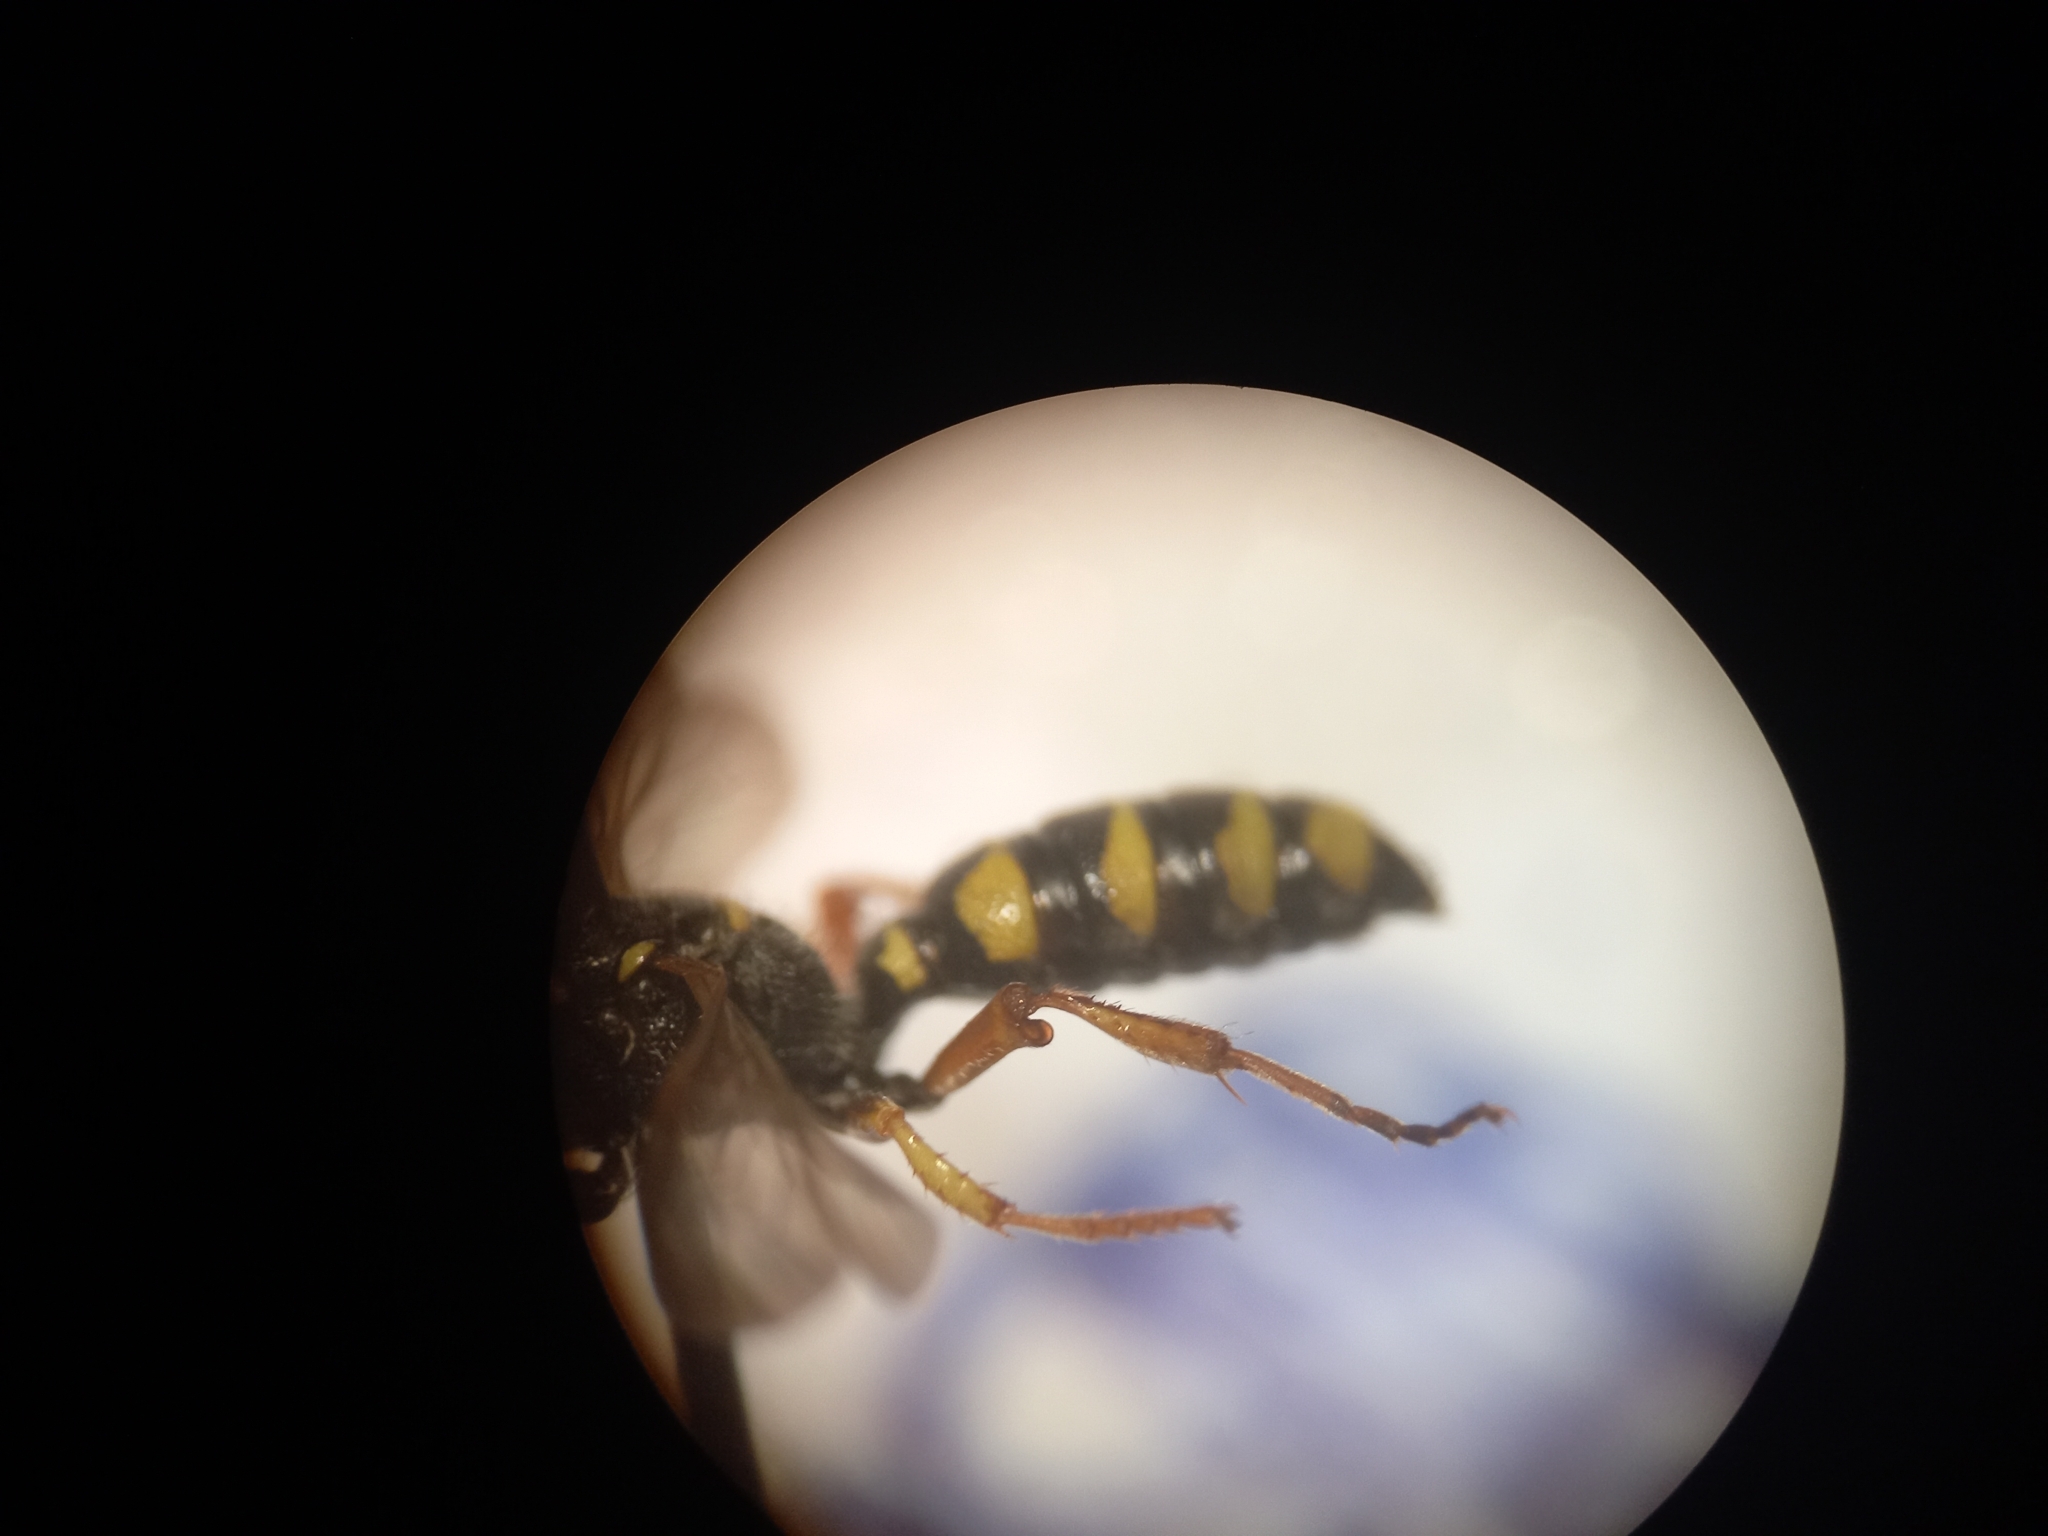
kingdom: Animalia
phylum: Arthropoda
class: Insecta
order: Hymenoptera
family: Crabronidae
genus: Cerceris
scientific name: Cerceris quinquefasciata
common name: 5-banded tailed digger wasp
